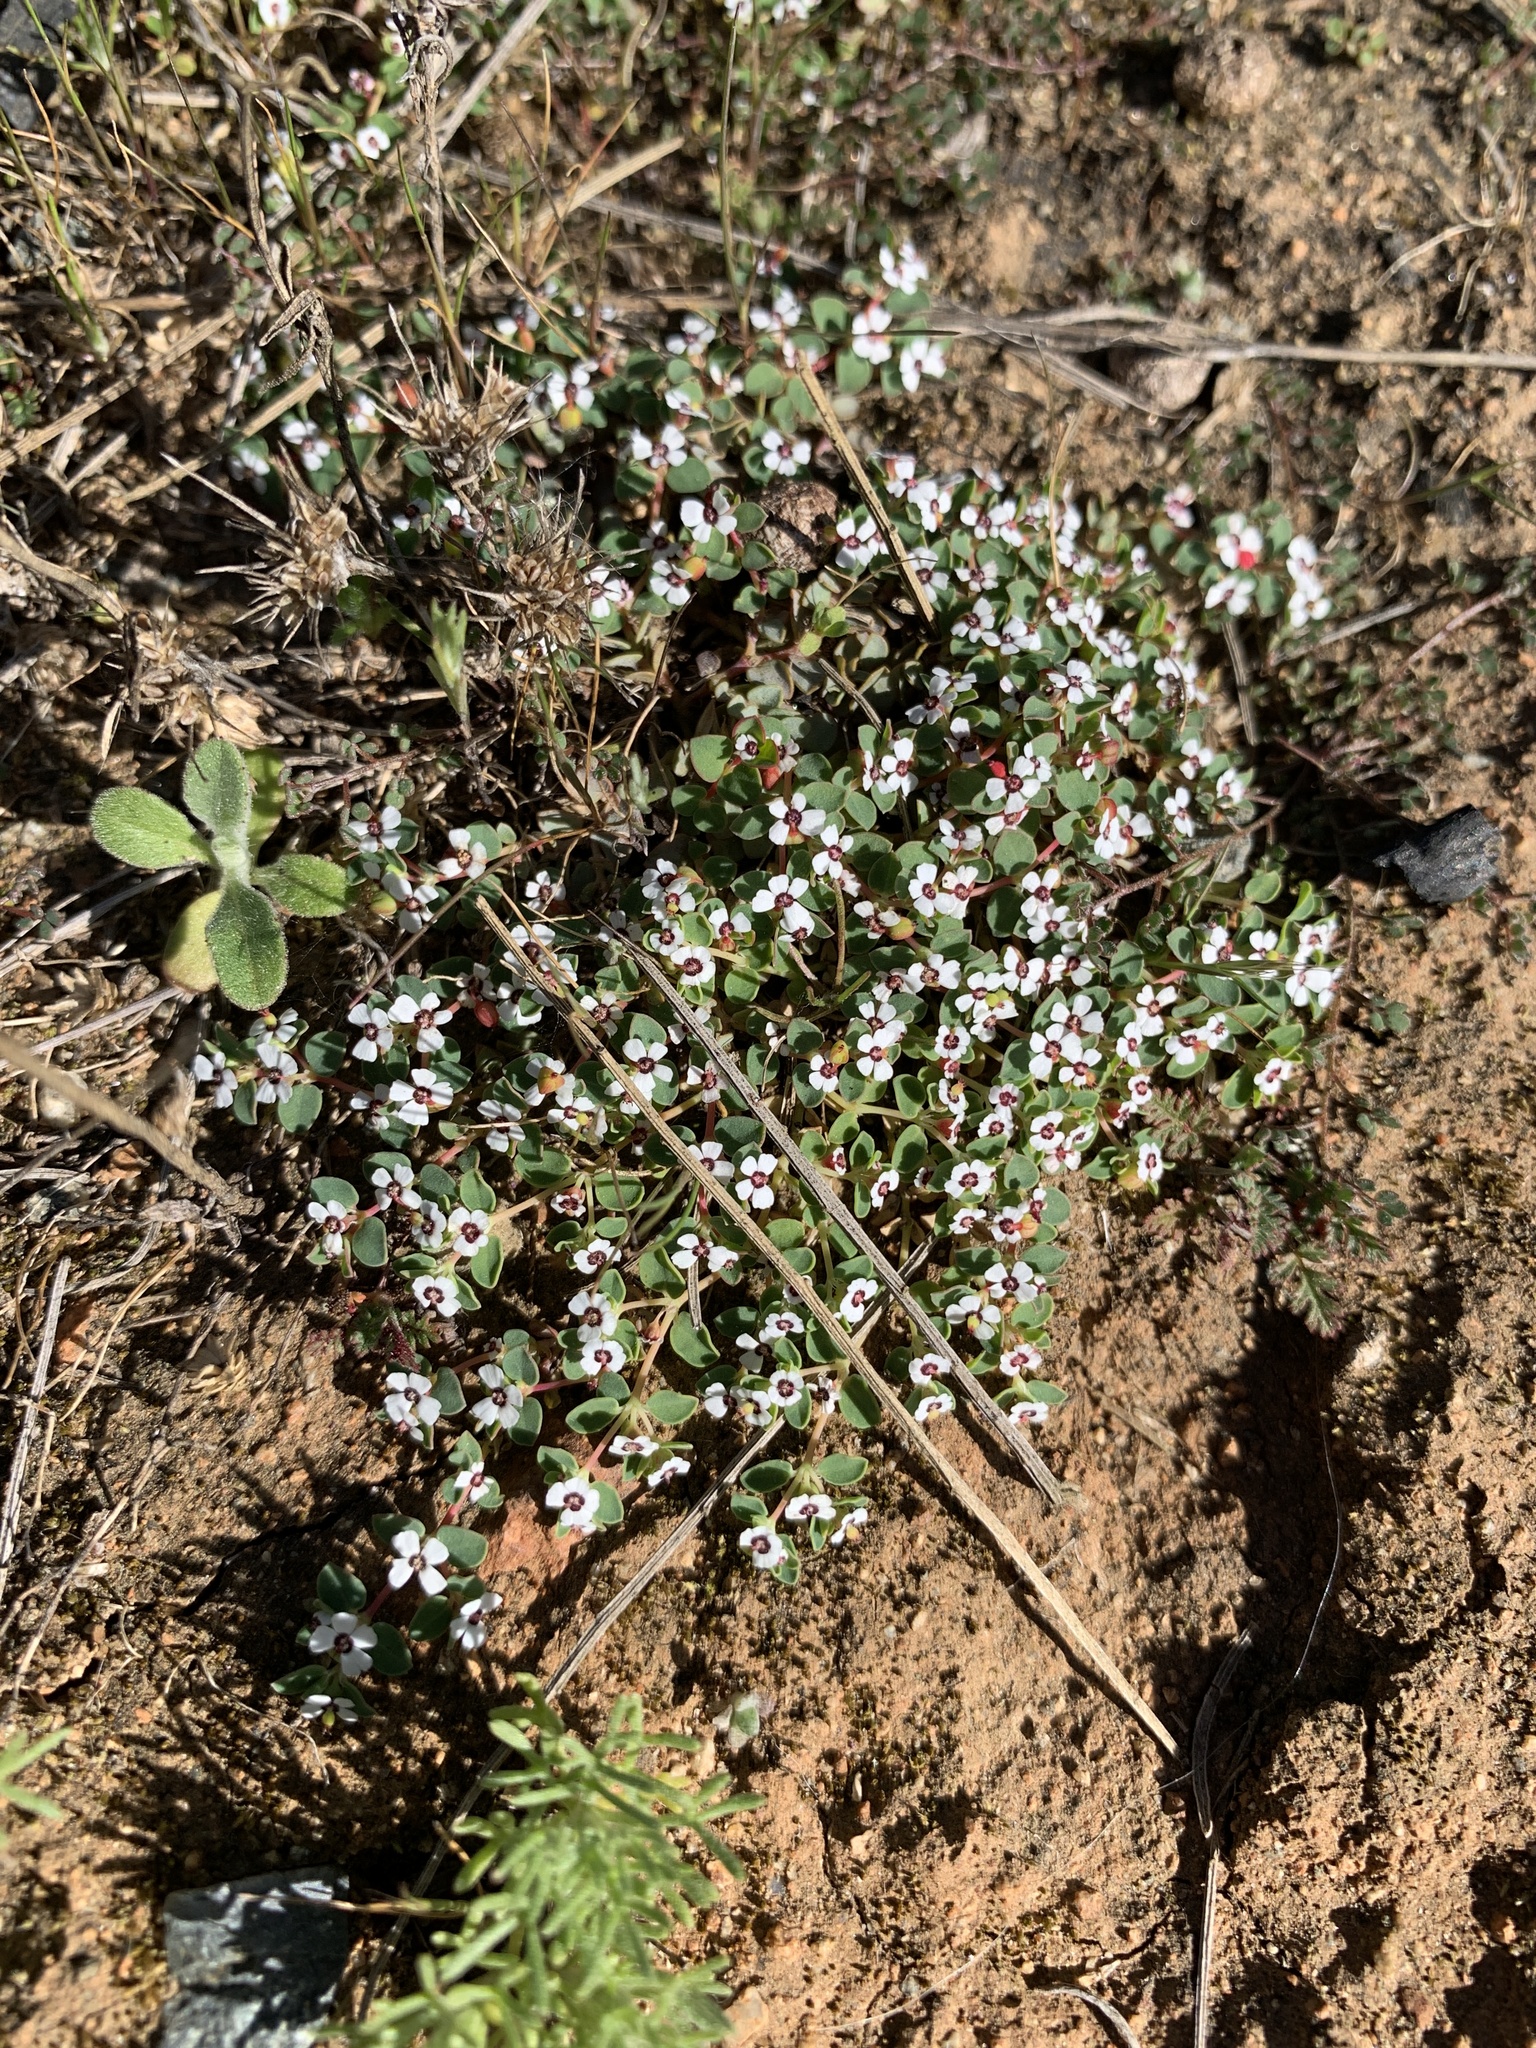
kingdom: Plantae
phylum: Tracheophyta
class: Magnoliopsida
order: Malpighiales
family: Euphorbiaceae
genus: Euphorbia
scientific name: Euphorbia polycarpa
